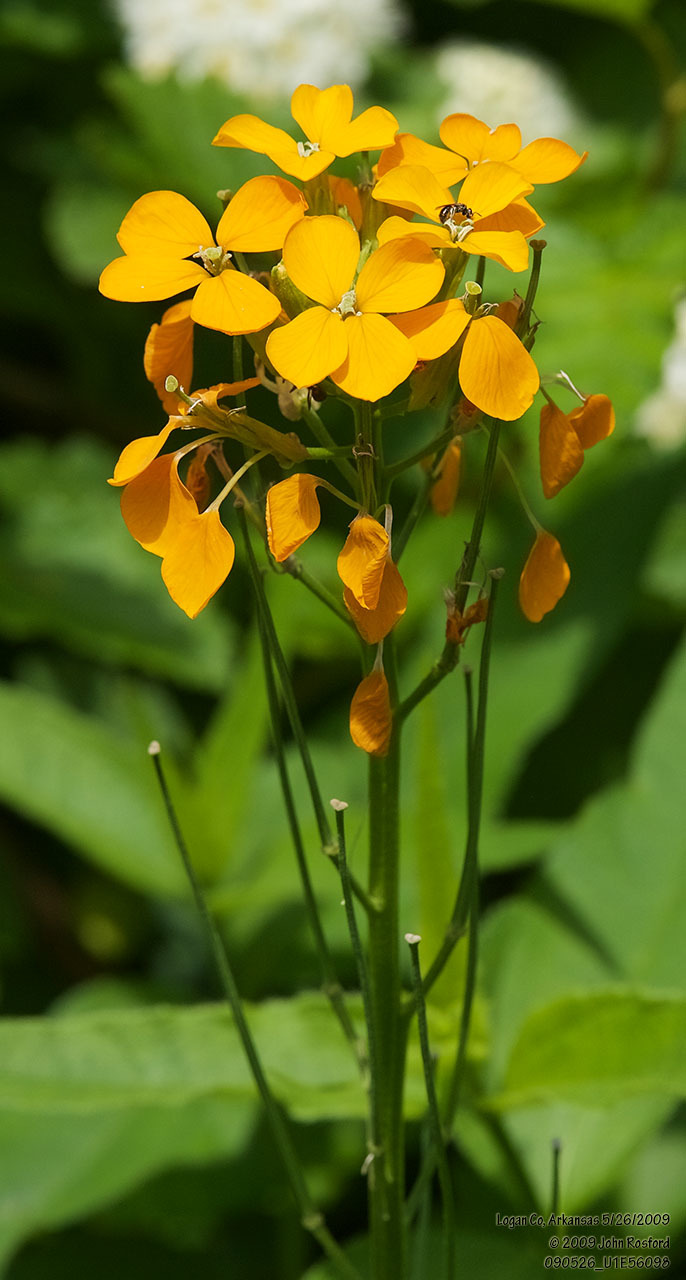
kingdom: Plantae
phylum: Tracheophyta
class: Magnoliopsida
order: Brassicales
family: Brassicaceae
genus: Erysimum
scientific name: Erysimum capitatum
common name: Western wallflower
